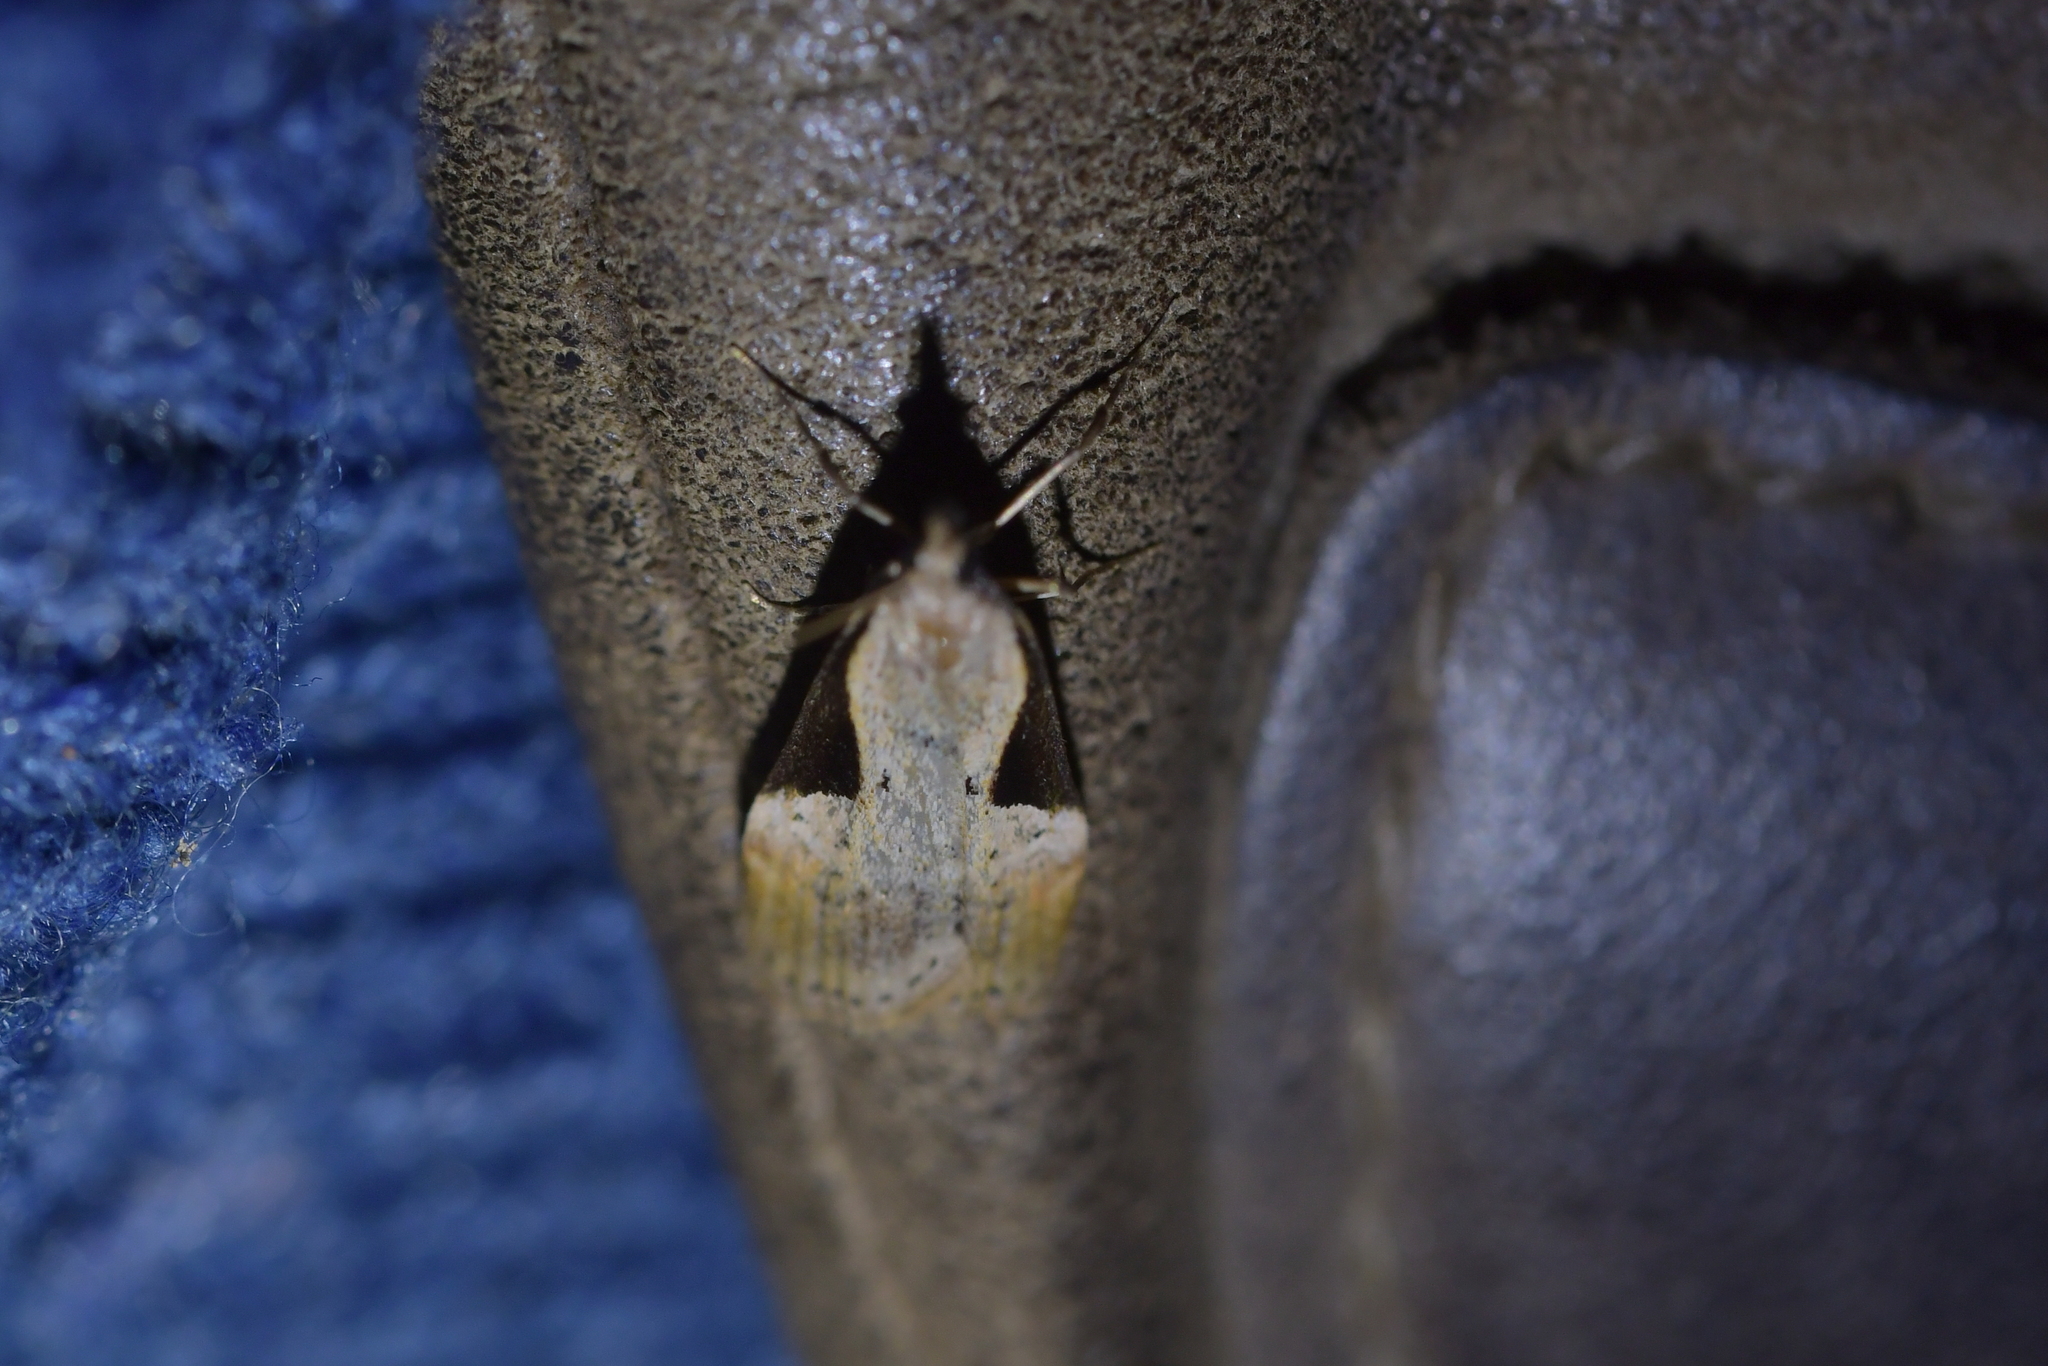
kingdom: Animalia
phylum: Arthropoda
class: Insecta
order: Lepidoptera
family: Crambidae
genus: Eudonia
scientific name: Eudonia pongalis
